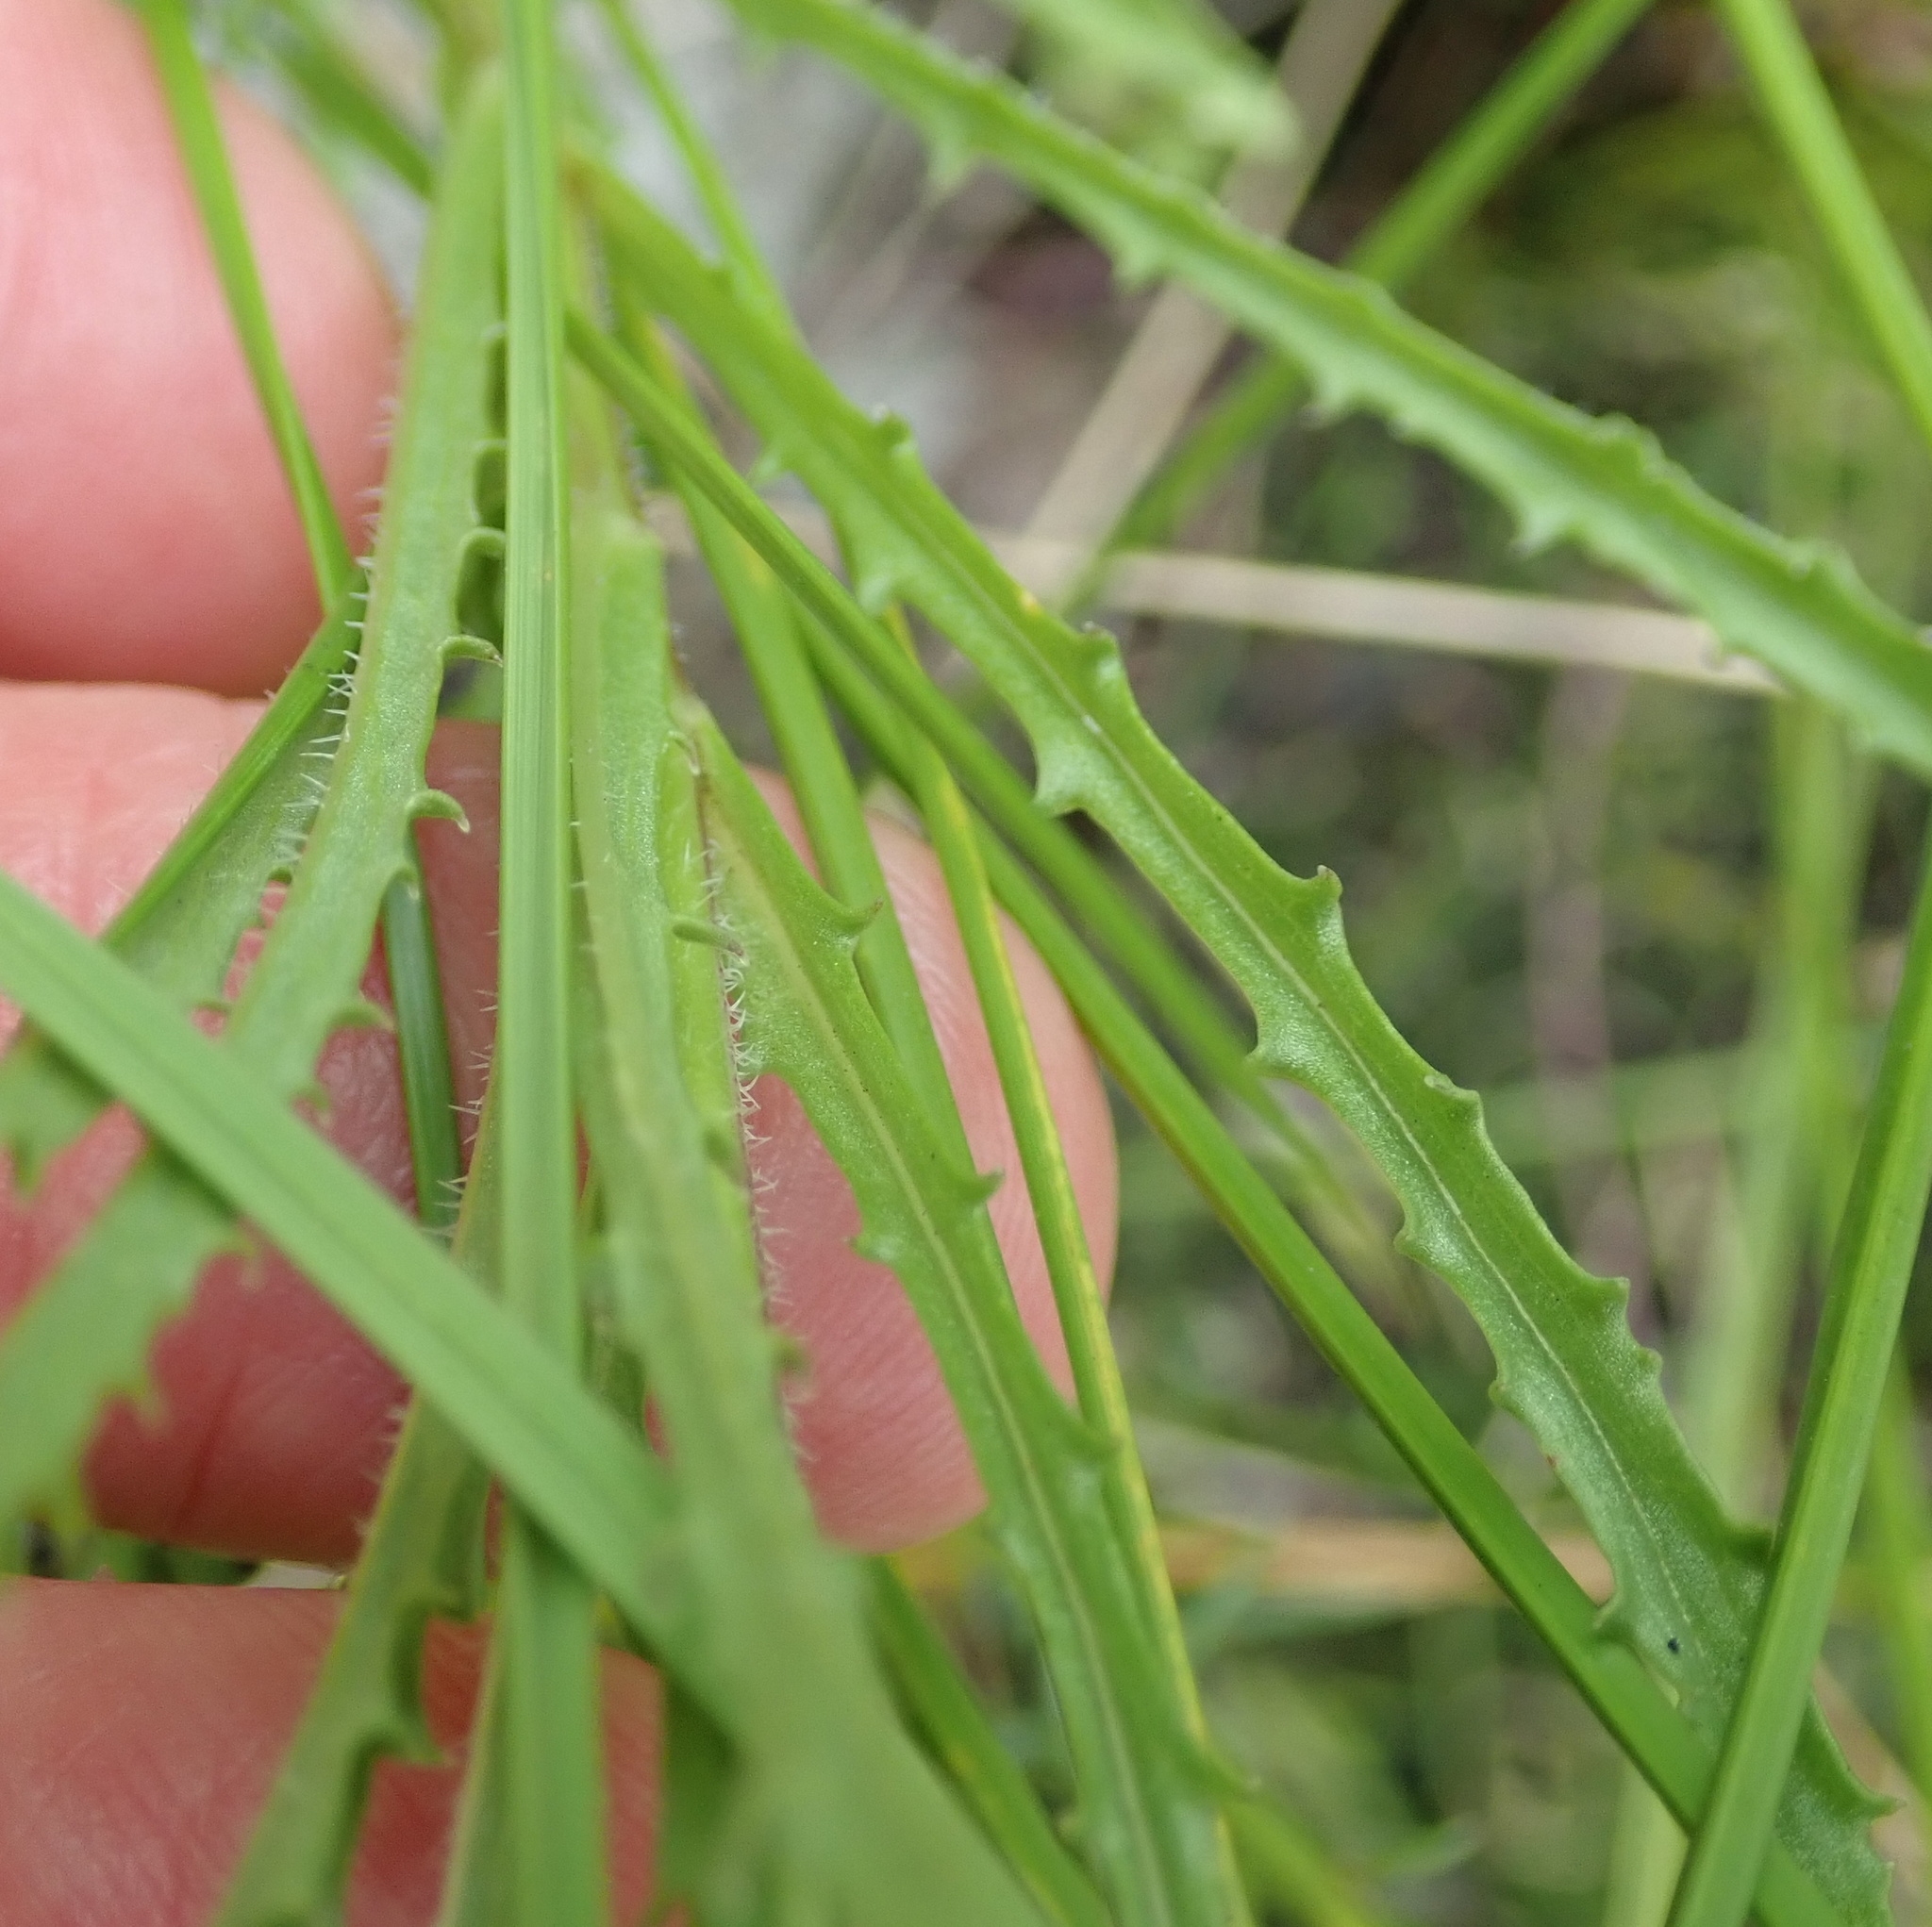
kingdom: Plantae
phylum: Tracheophyta
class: Magnoliopsida
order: Asterales
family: Campanulaceae
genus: Wahlenbergia
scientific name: Wahlenbergia undulata
